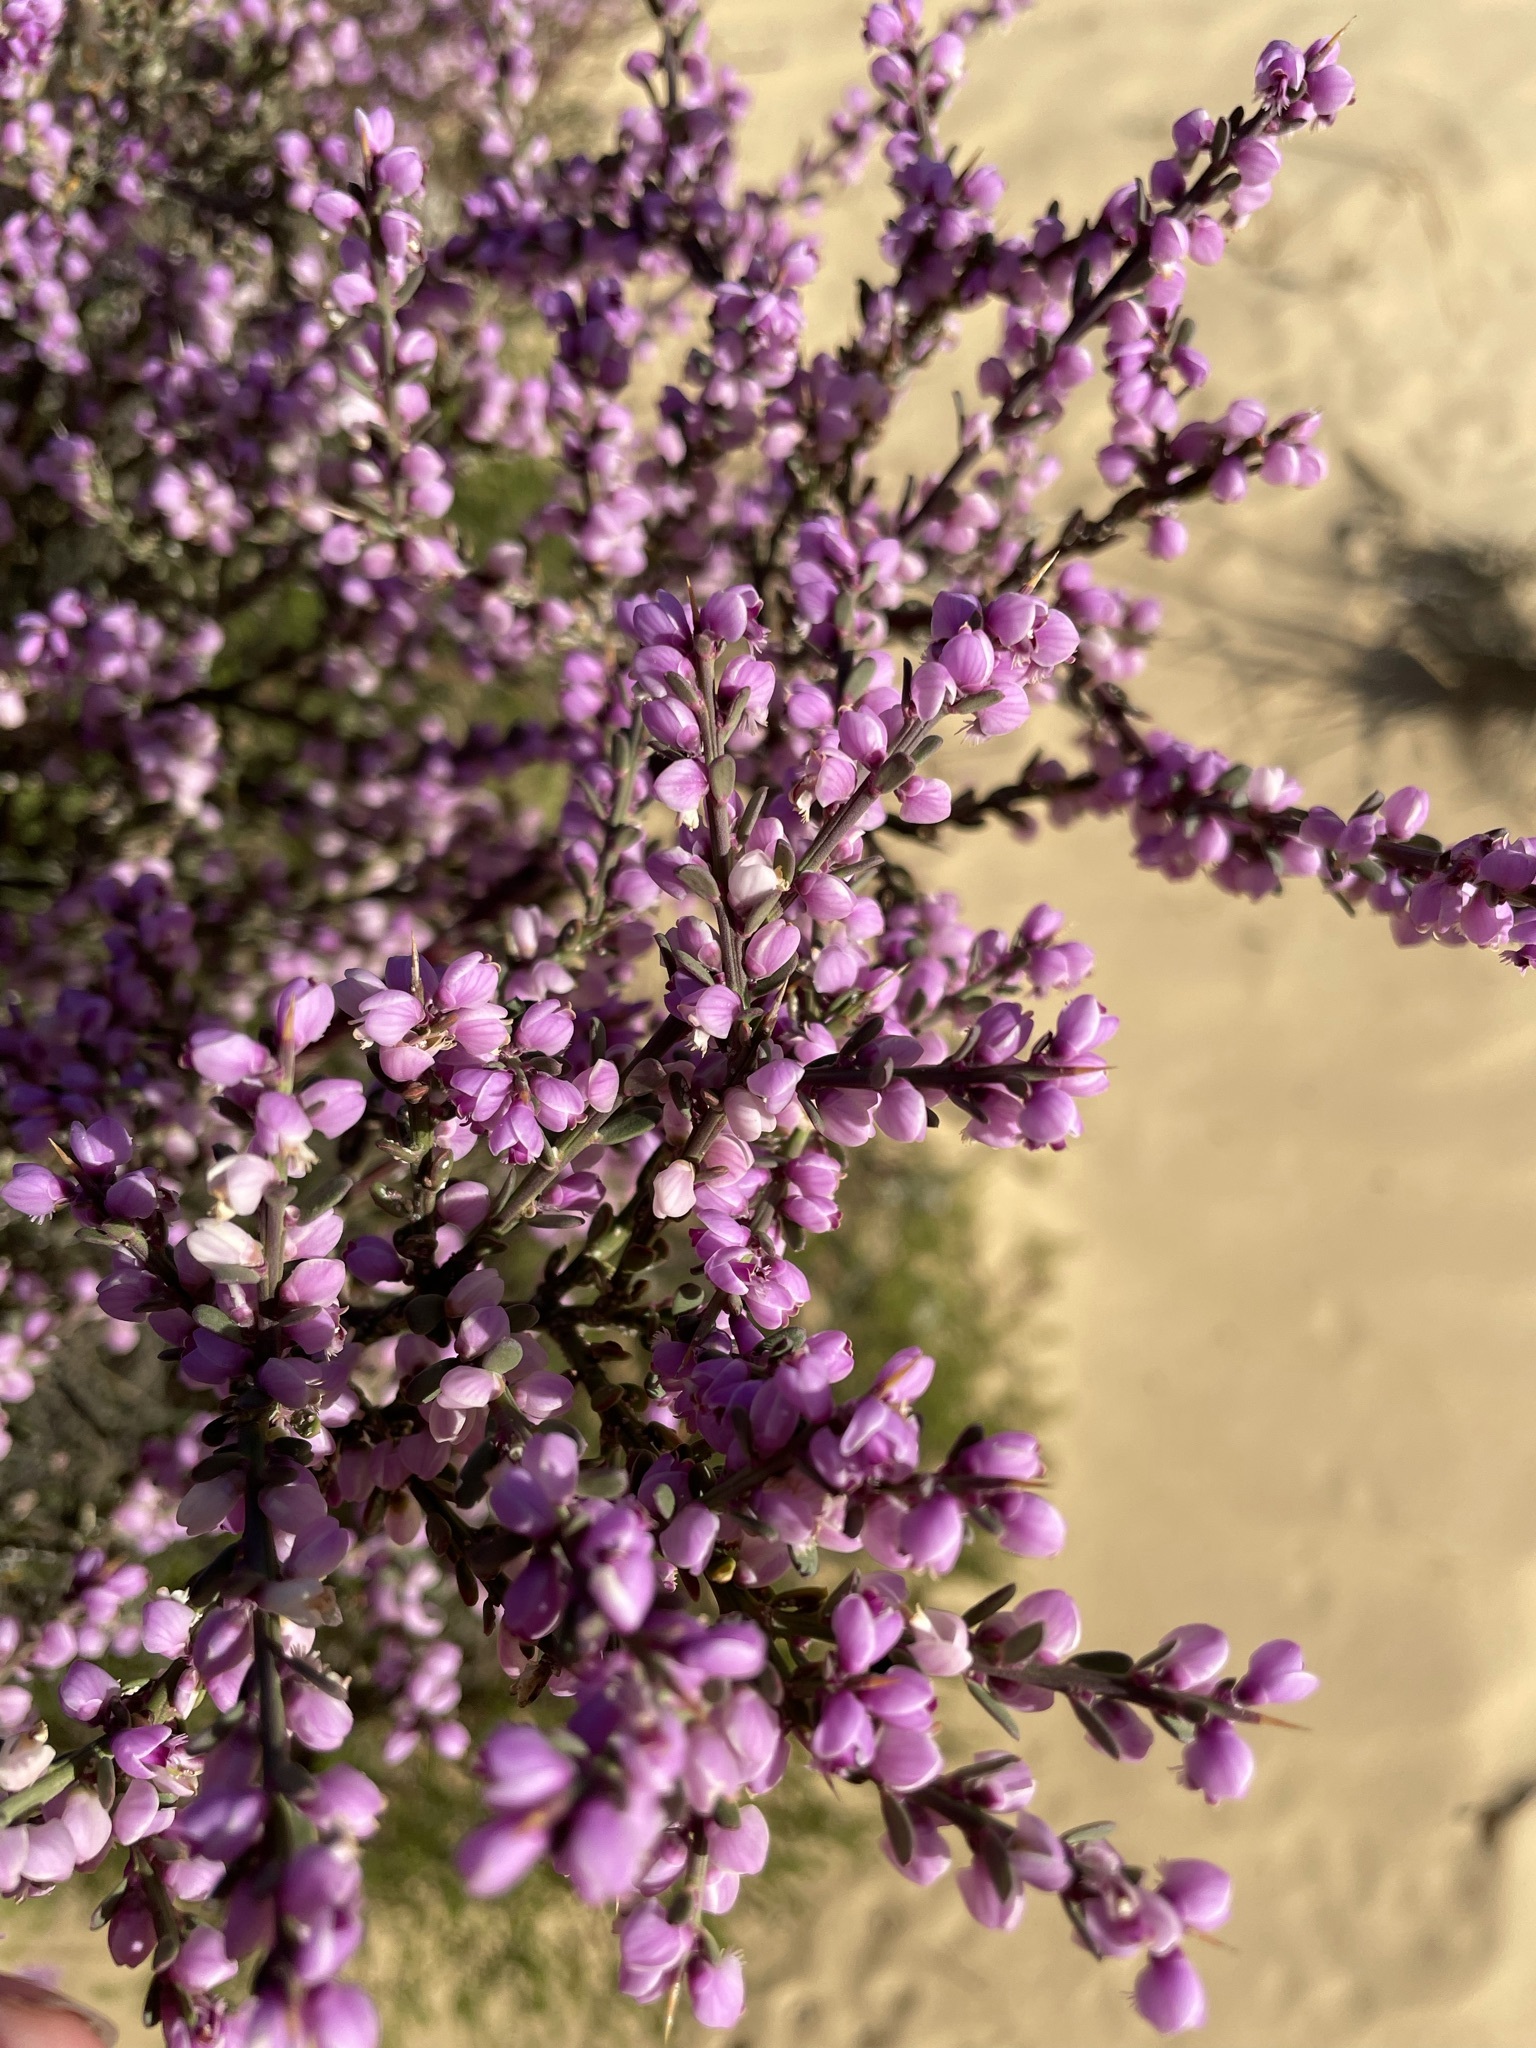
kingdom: Plantae
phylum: Tracheophyta
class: Magnoliopsida
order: Fabales
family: Polygalaceae
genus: Muraltia
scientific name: Muraltia spinosa
